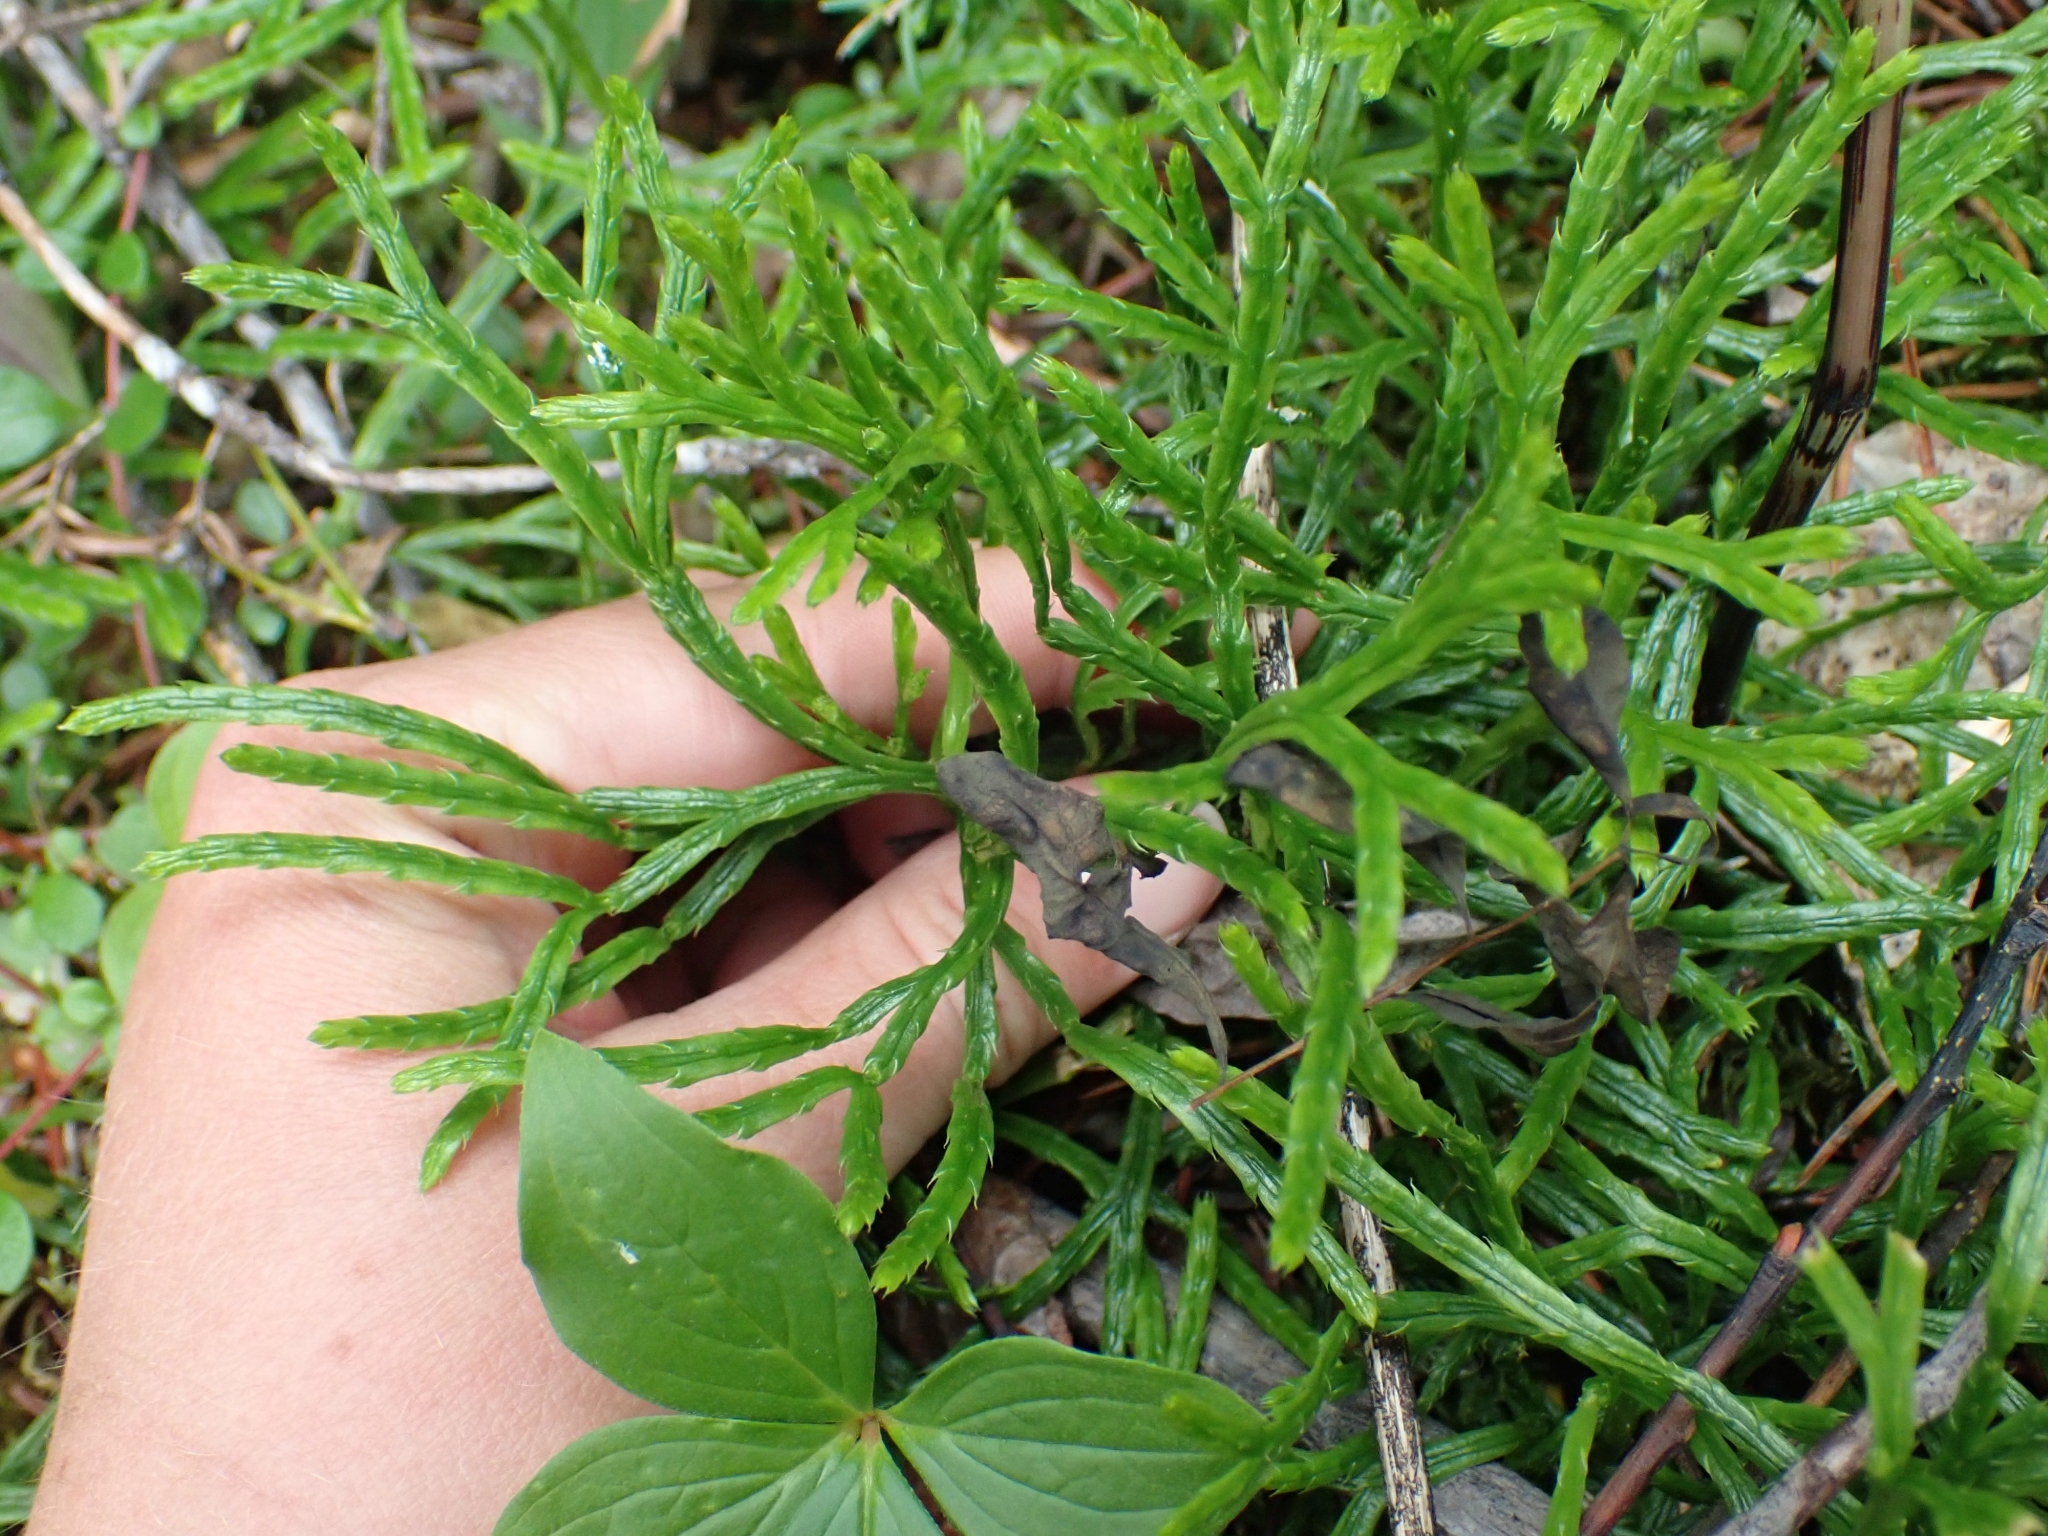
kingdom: Plantae
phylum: Tracheophyta
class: Lycopodiopsida
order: Lycopodiales
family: Lycopodiaceae
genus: Diphasiastrum
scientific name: Diphasiastrum complanatum
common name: Northern running-pine
